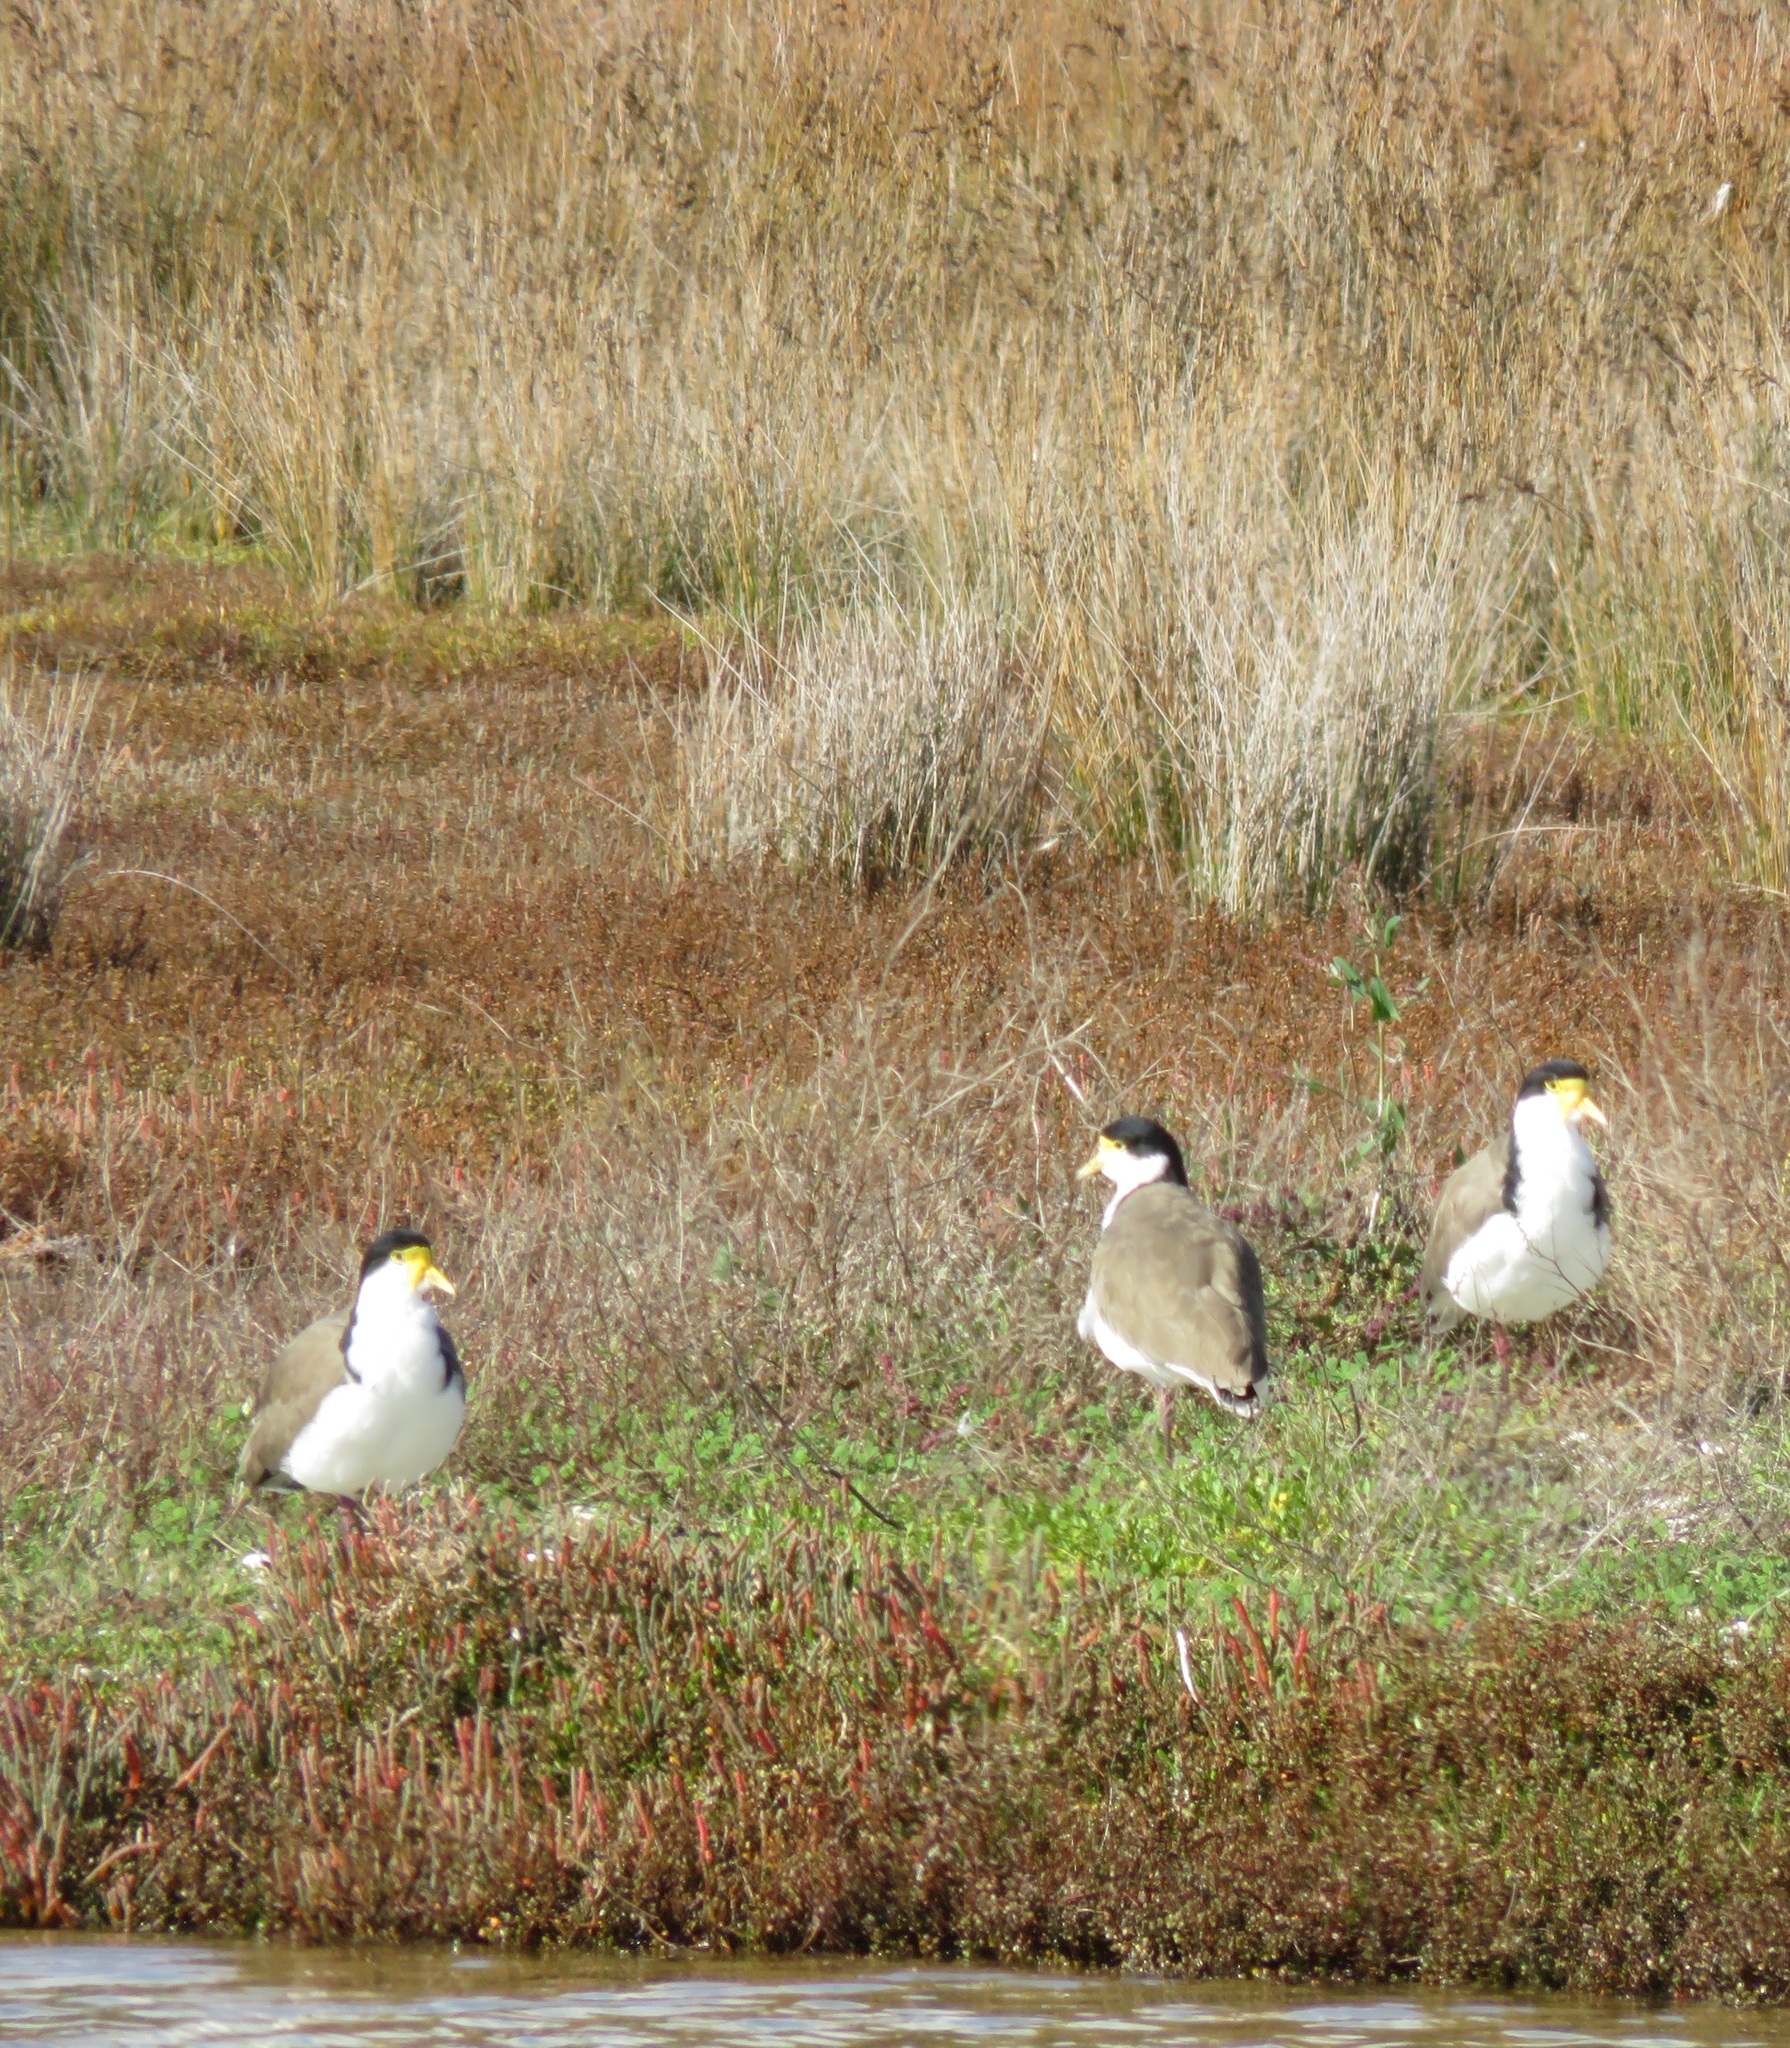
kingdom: Animalia
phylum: Chordata
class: Aves
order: Charadriiformes
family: Charadriidae
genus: Vanellus
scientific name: Vanellus miles
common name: Masked lapwing
